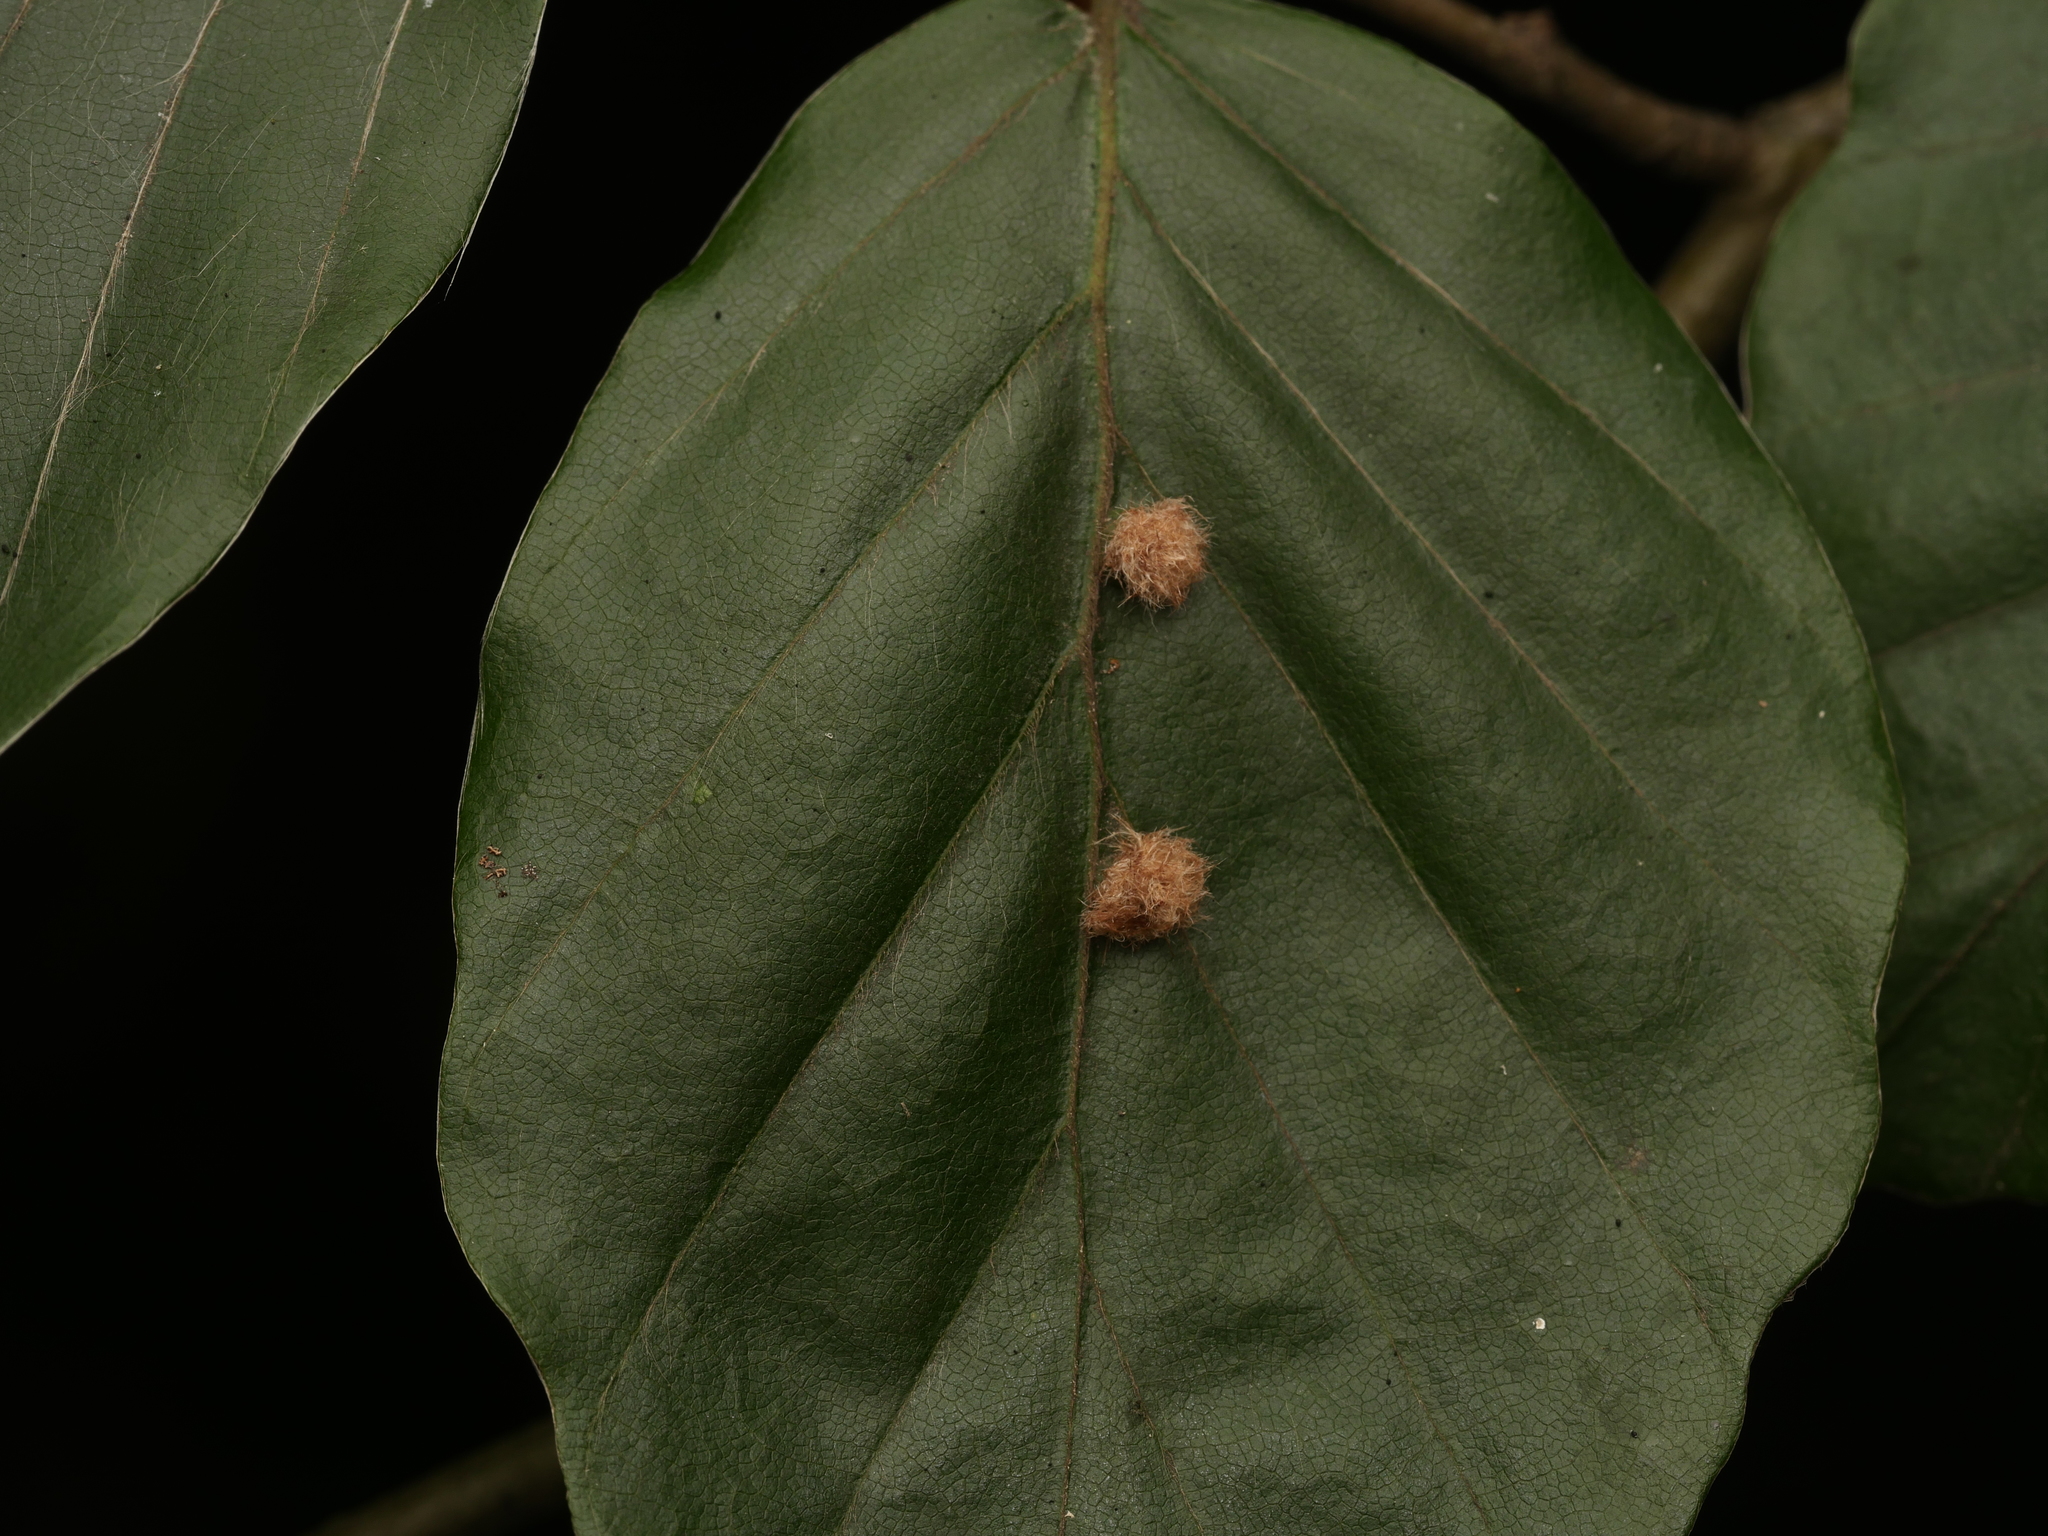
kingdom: Animalia
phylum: Arthropoda
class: Insecta
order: Diptera
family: Cecidomyiidae
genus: Hartigiola
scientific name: Hartigiola annulipes
